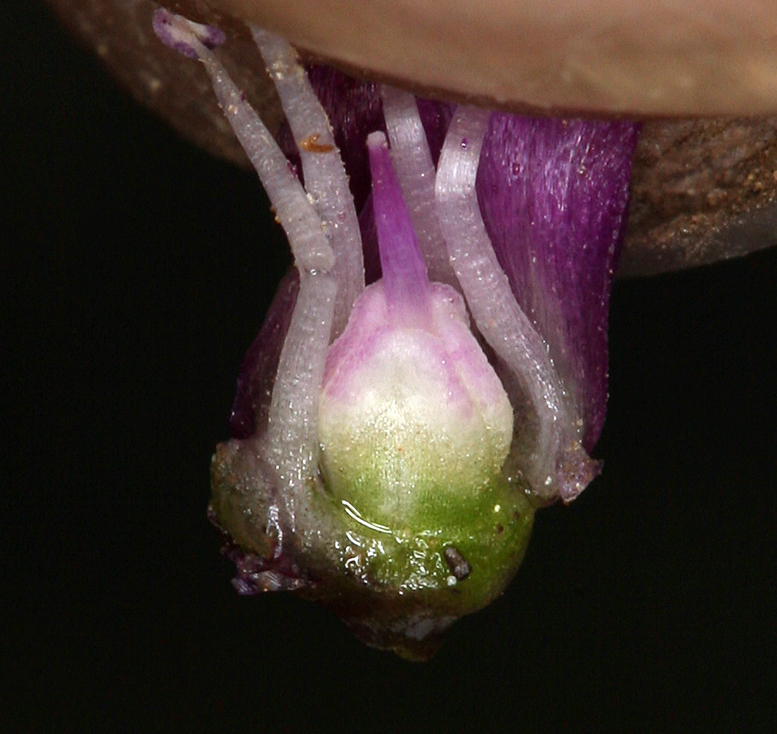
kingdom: Plantae
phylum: Tracheophyta
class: Liliopsida
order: Asparagales
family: Amaryllidaceae
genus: Allium
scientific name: Allium falcifolium
